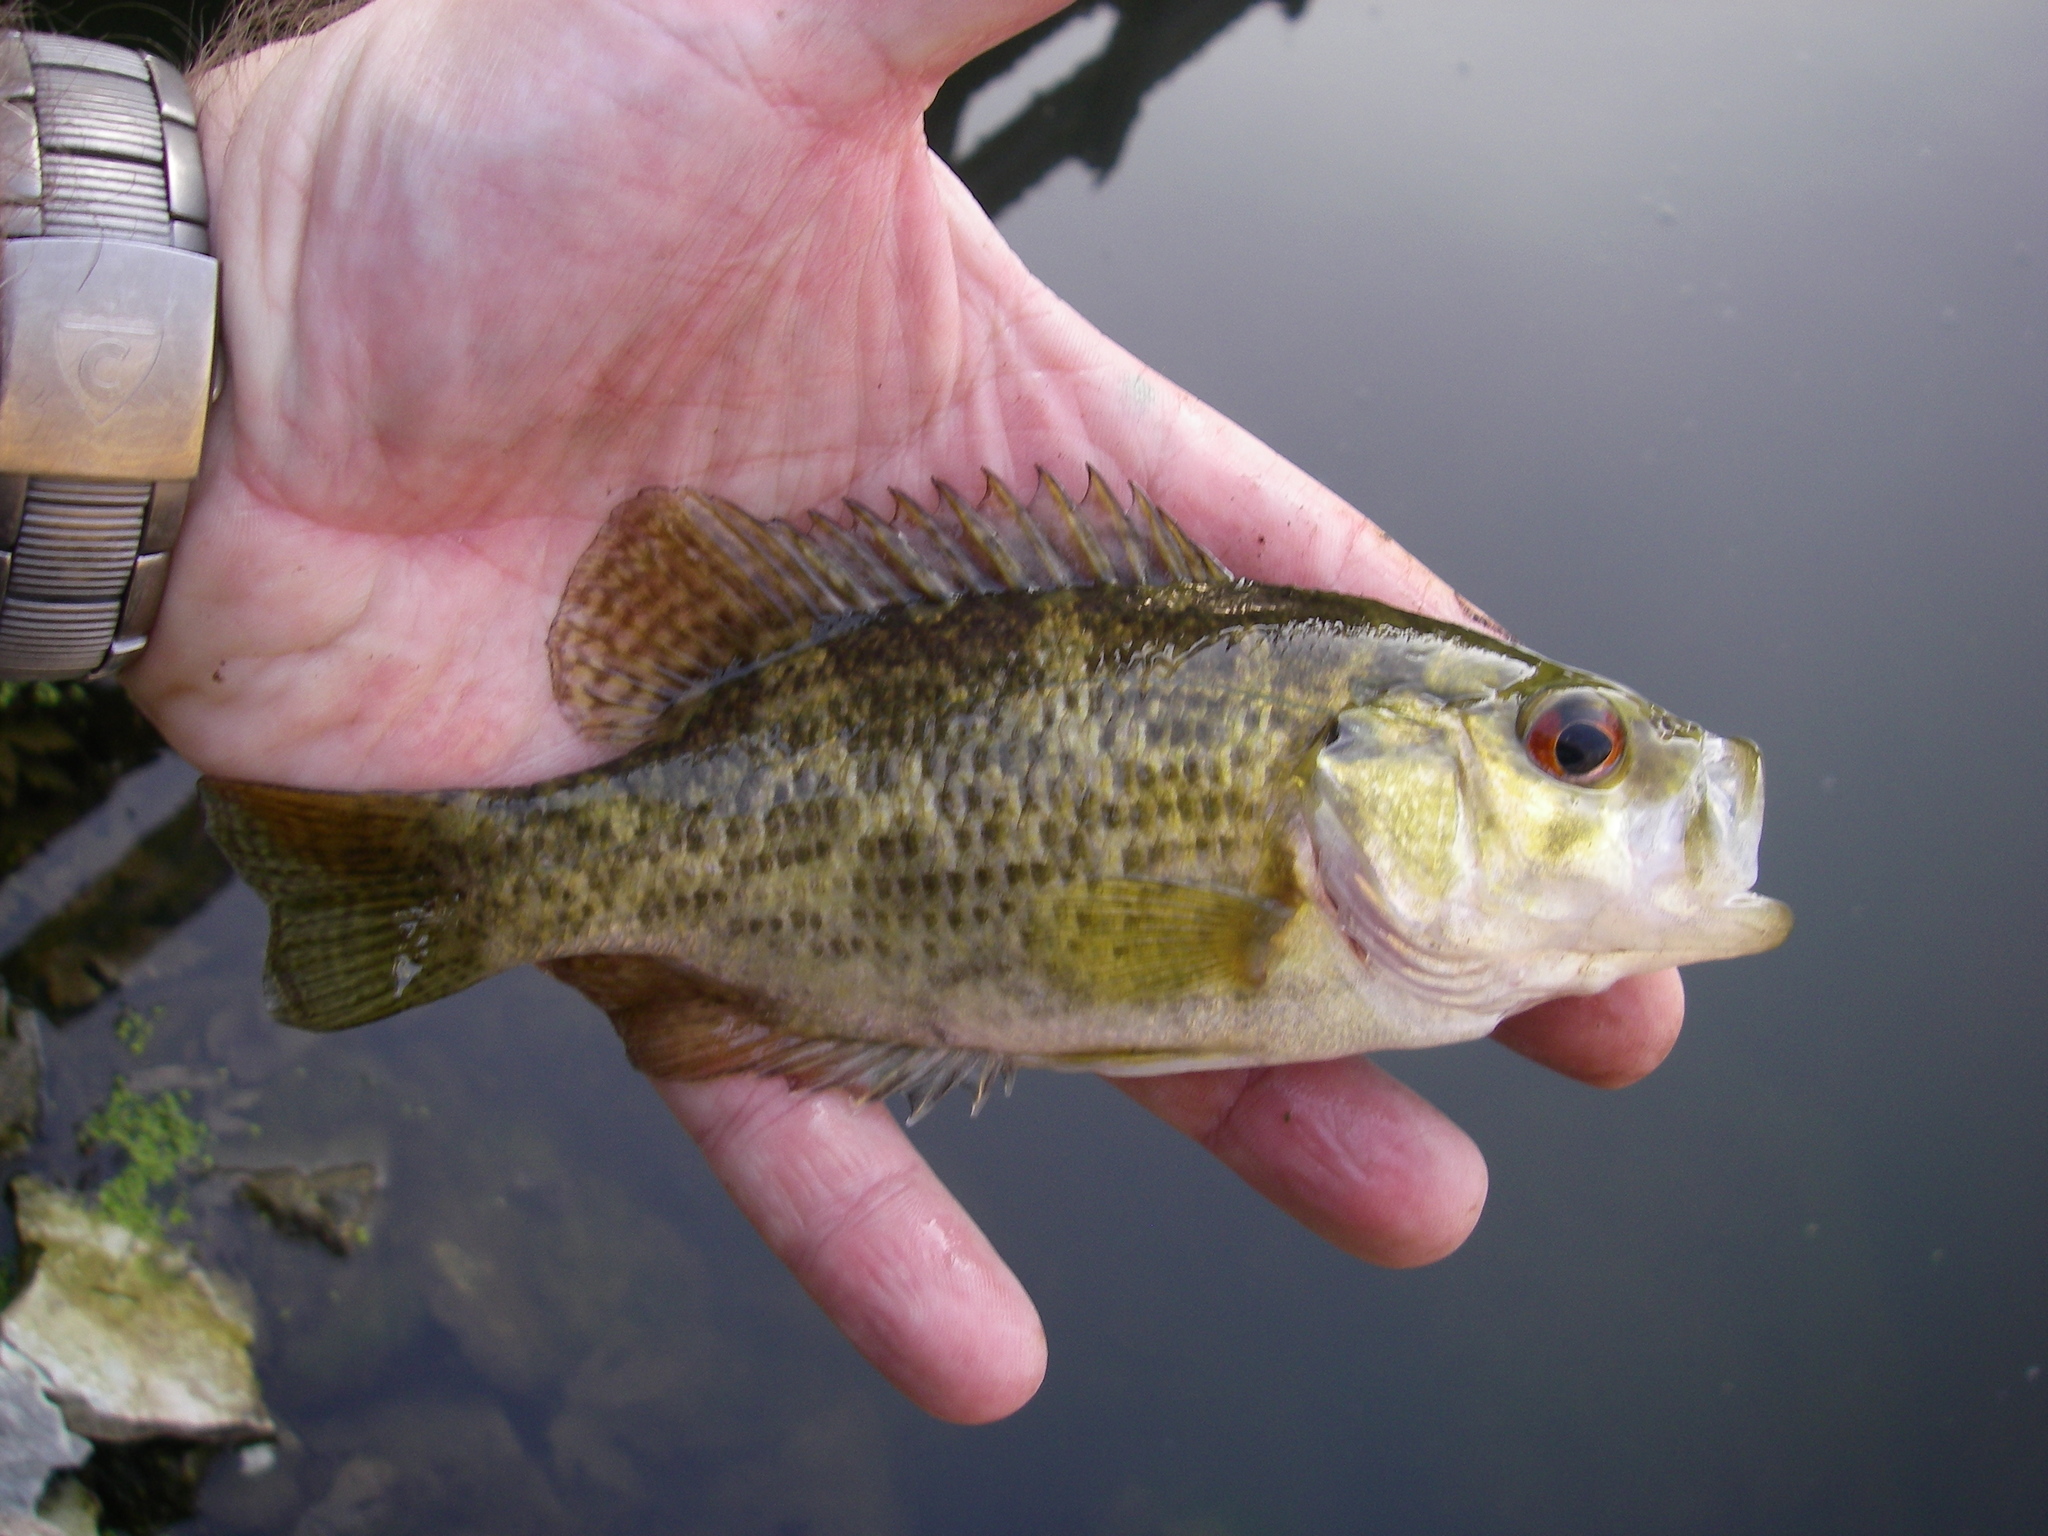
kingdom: Animalia
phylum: Chordata
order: Perciformes
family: Centrarchidae
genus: Ambloplites
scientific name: Ambloplites rupestris
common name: Rock bass
